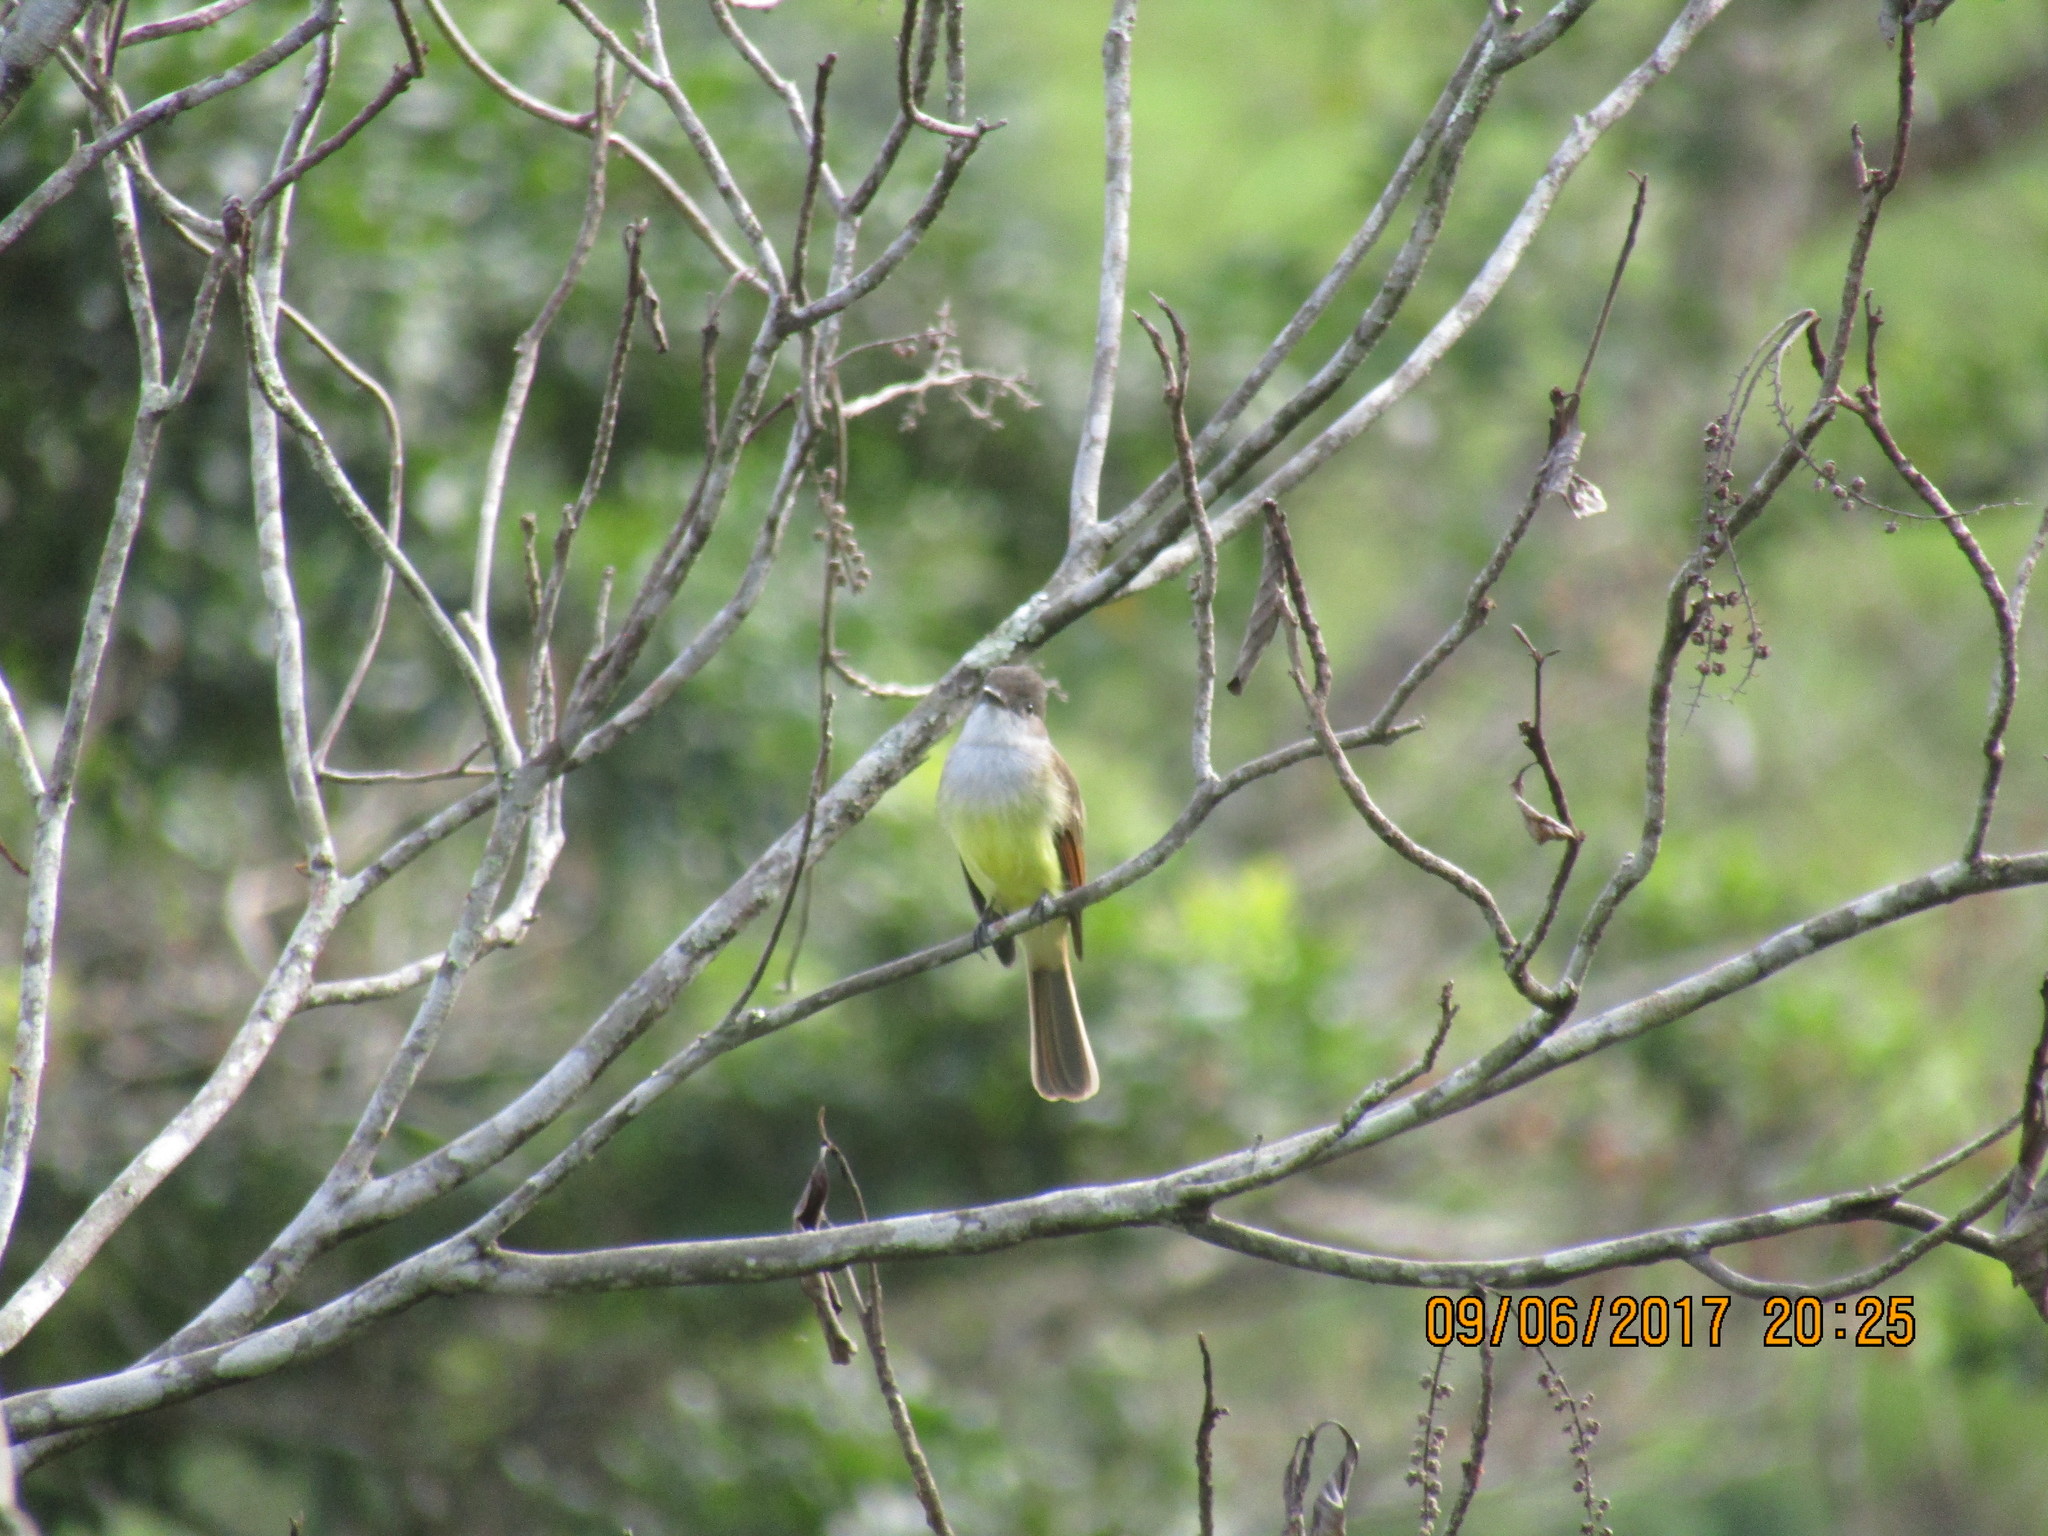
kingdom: Animalia
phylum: Chordata
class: Aves
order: Passeriformes
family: Tyrannidae
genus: Myiarchus
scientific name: Myiarchus tuberculifer
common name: Dusky-capped flycatcher
